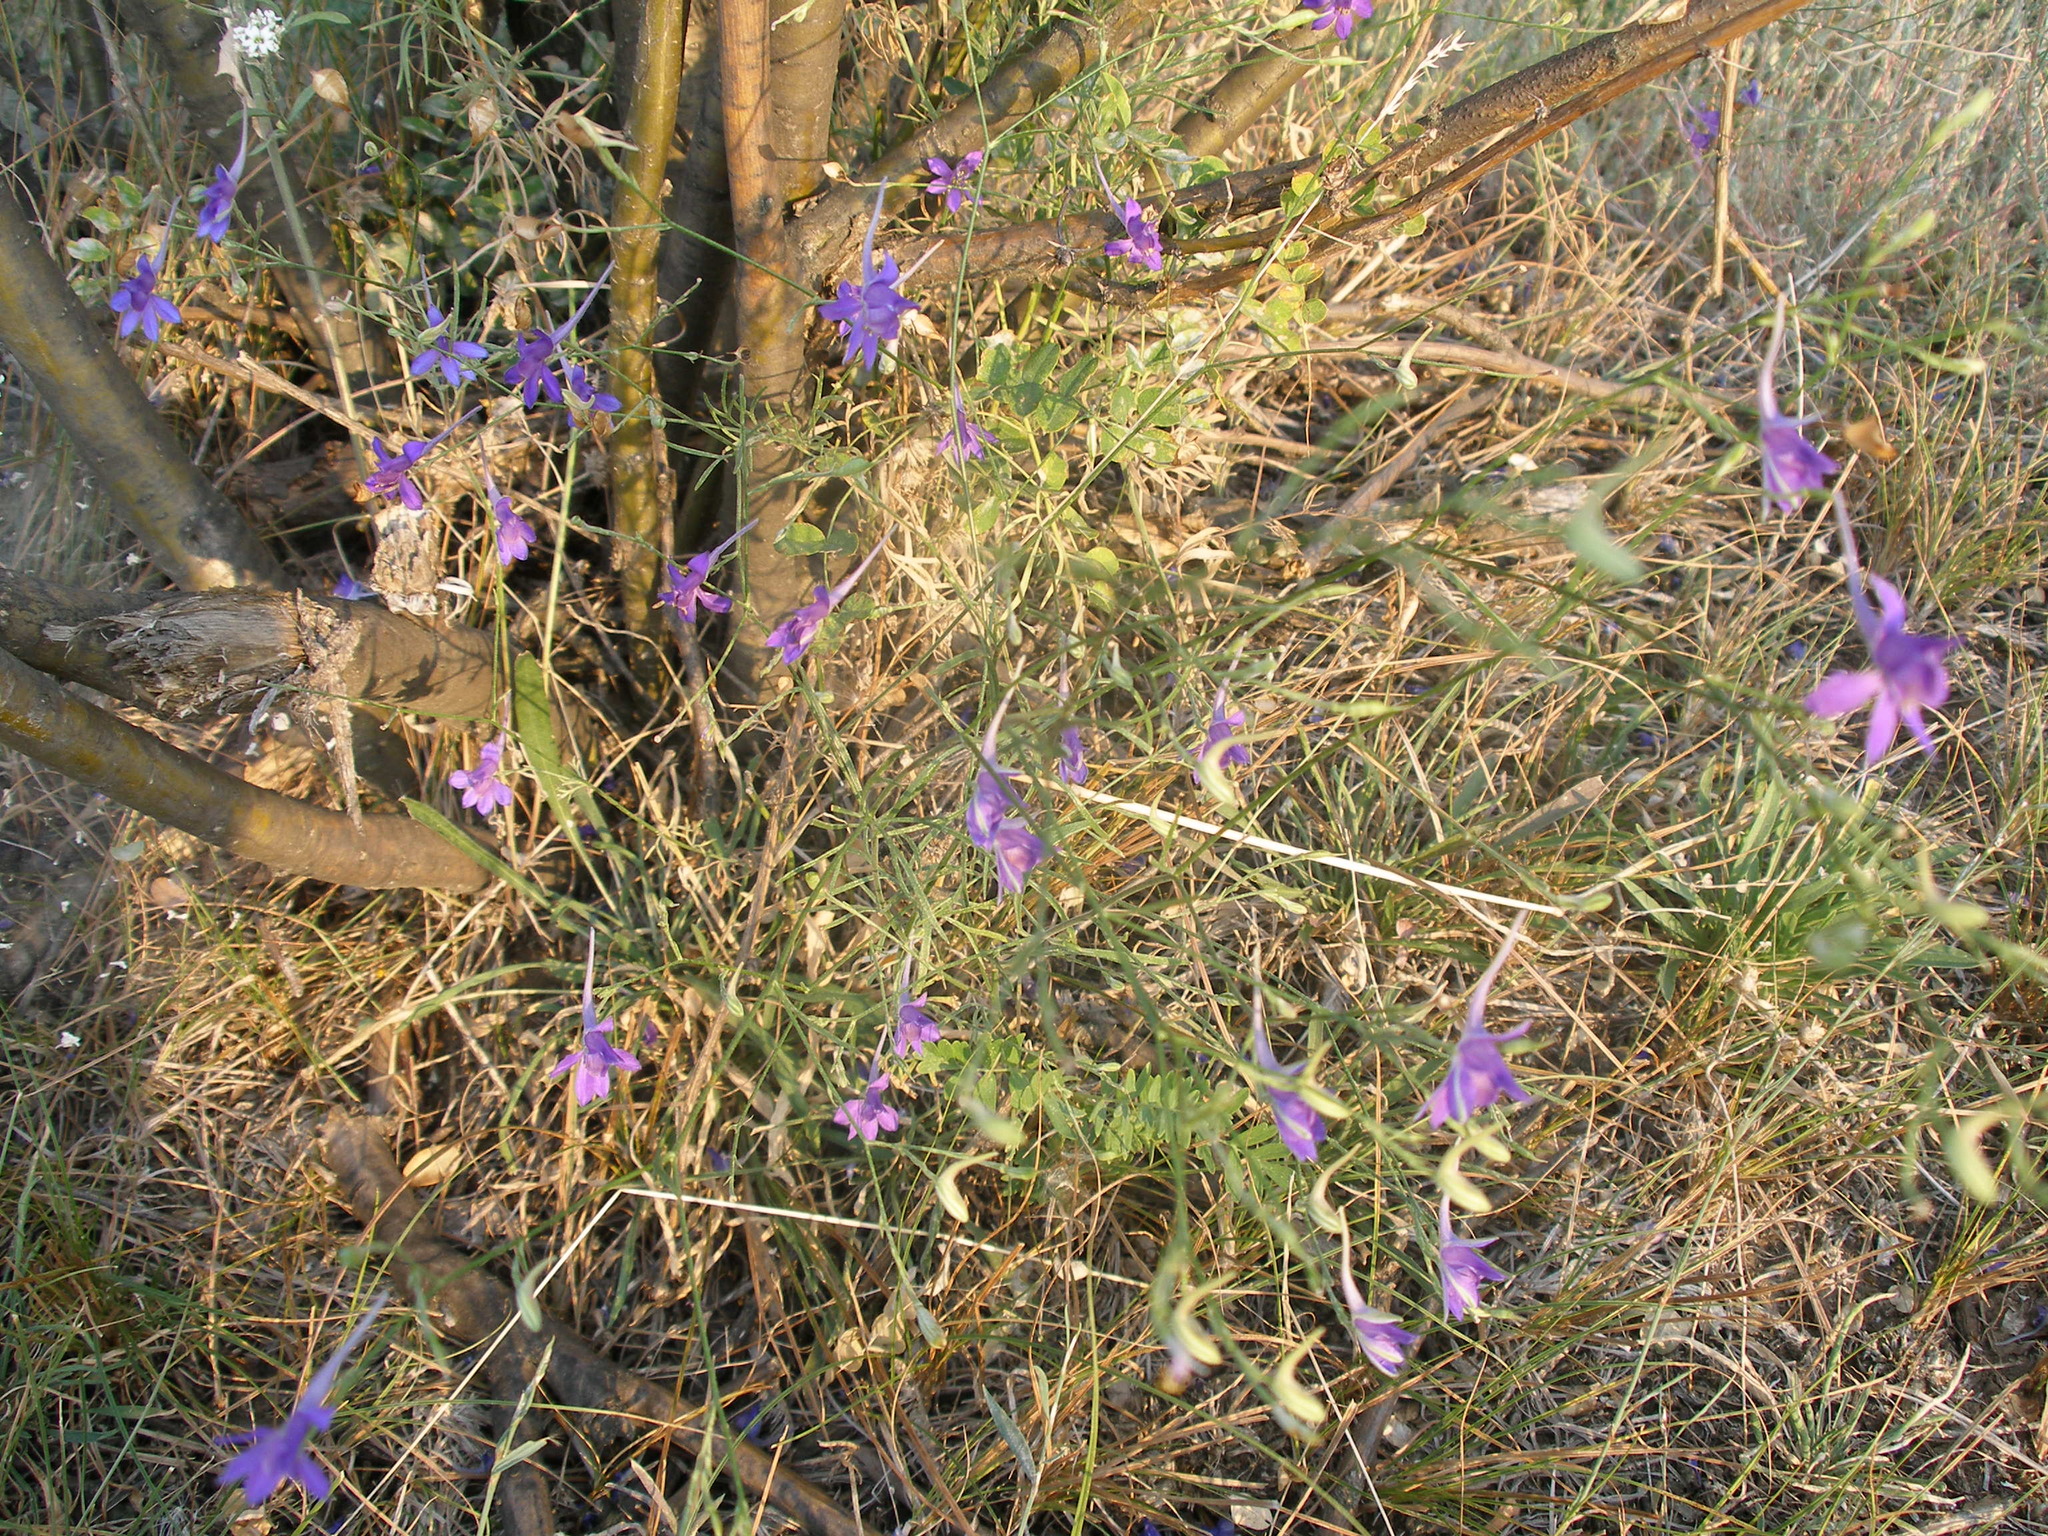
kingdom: Plantae
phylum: Tracheophyta
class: Magnoliopsida
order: Ranunculales
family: Ranunculaceae
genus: Delphinium
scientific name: Delphinium consolida
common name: Branching larkspur
